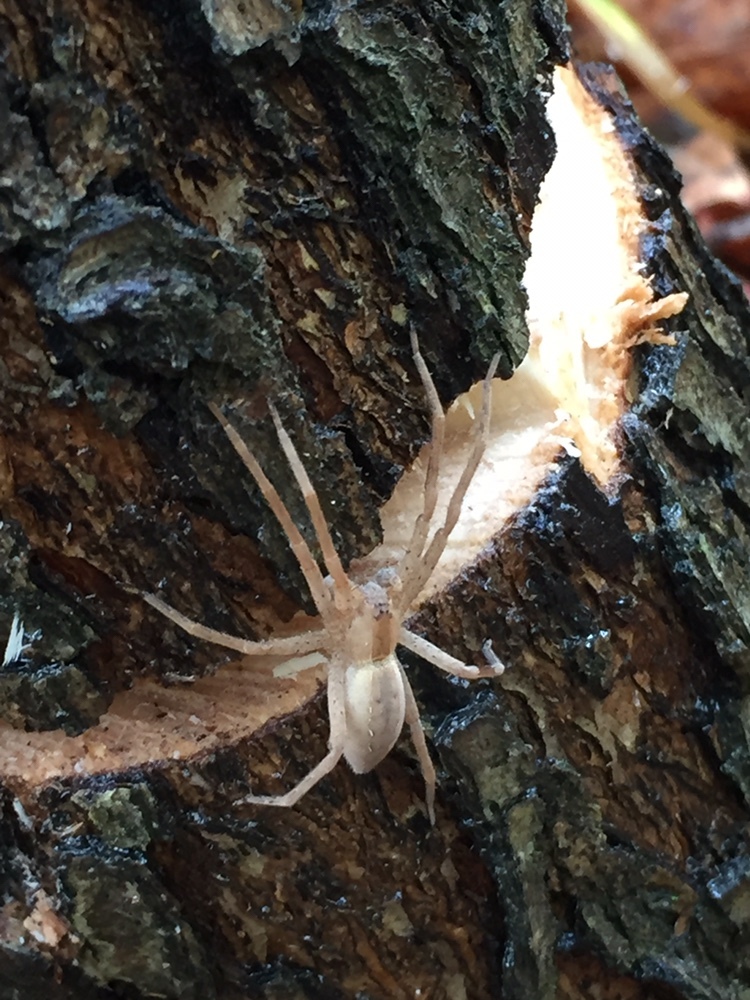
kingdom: Animalia
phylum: Arthropoda
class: Arachnida
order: Araneae
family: Pisauridae
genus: Pisaurina
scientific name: Pisaurina mira
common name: American nursery web spider
